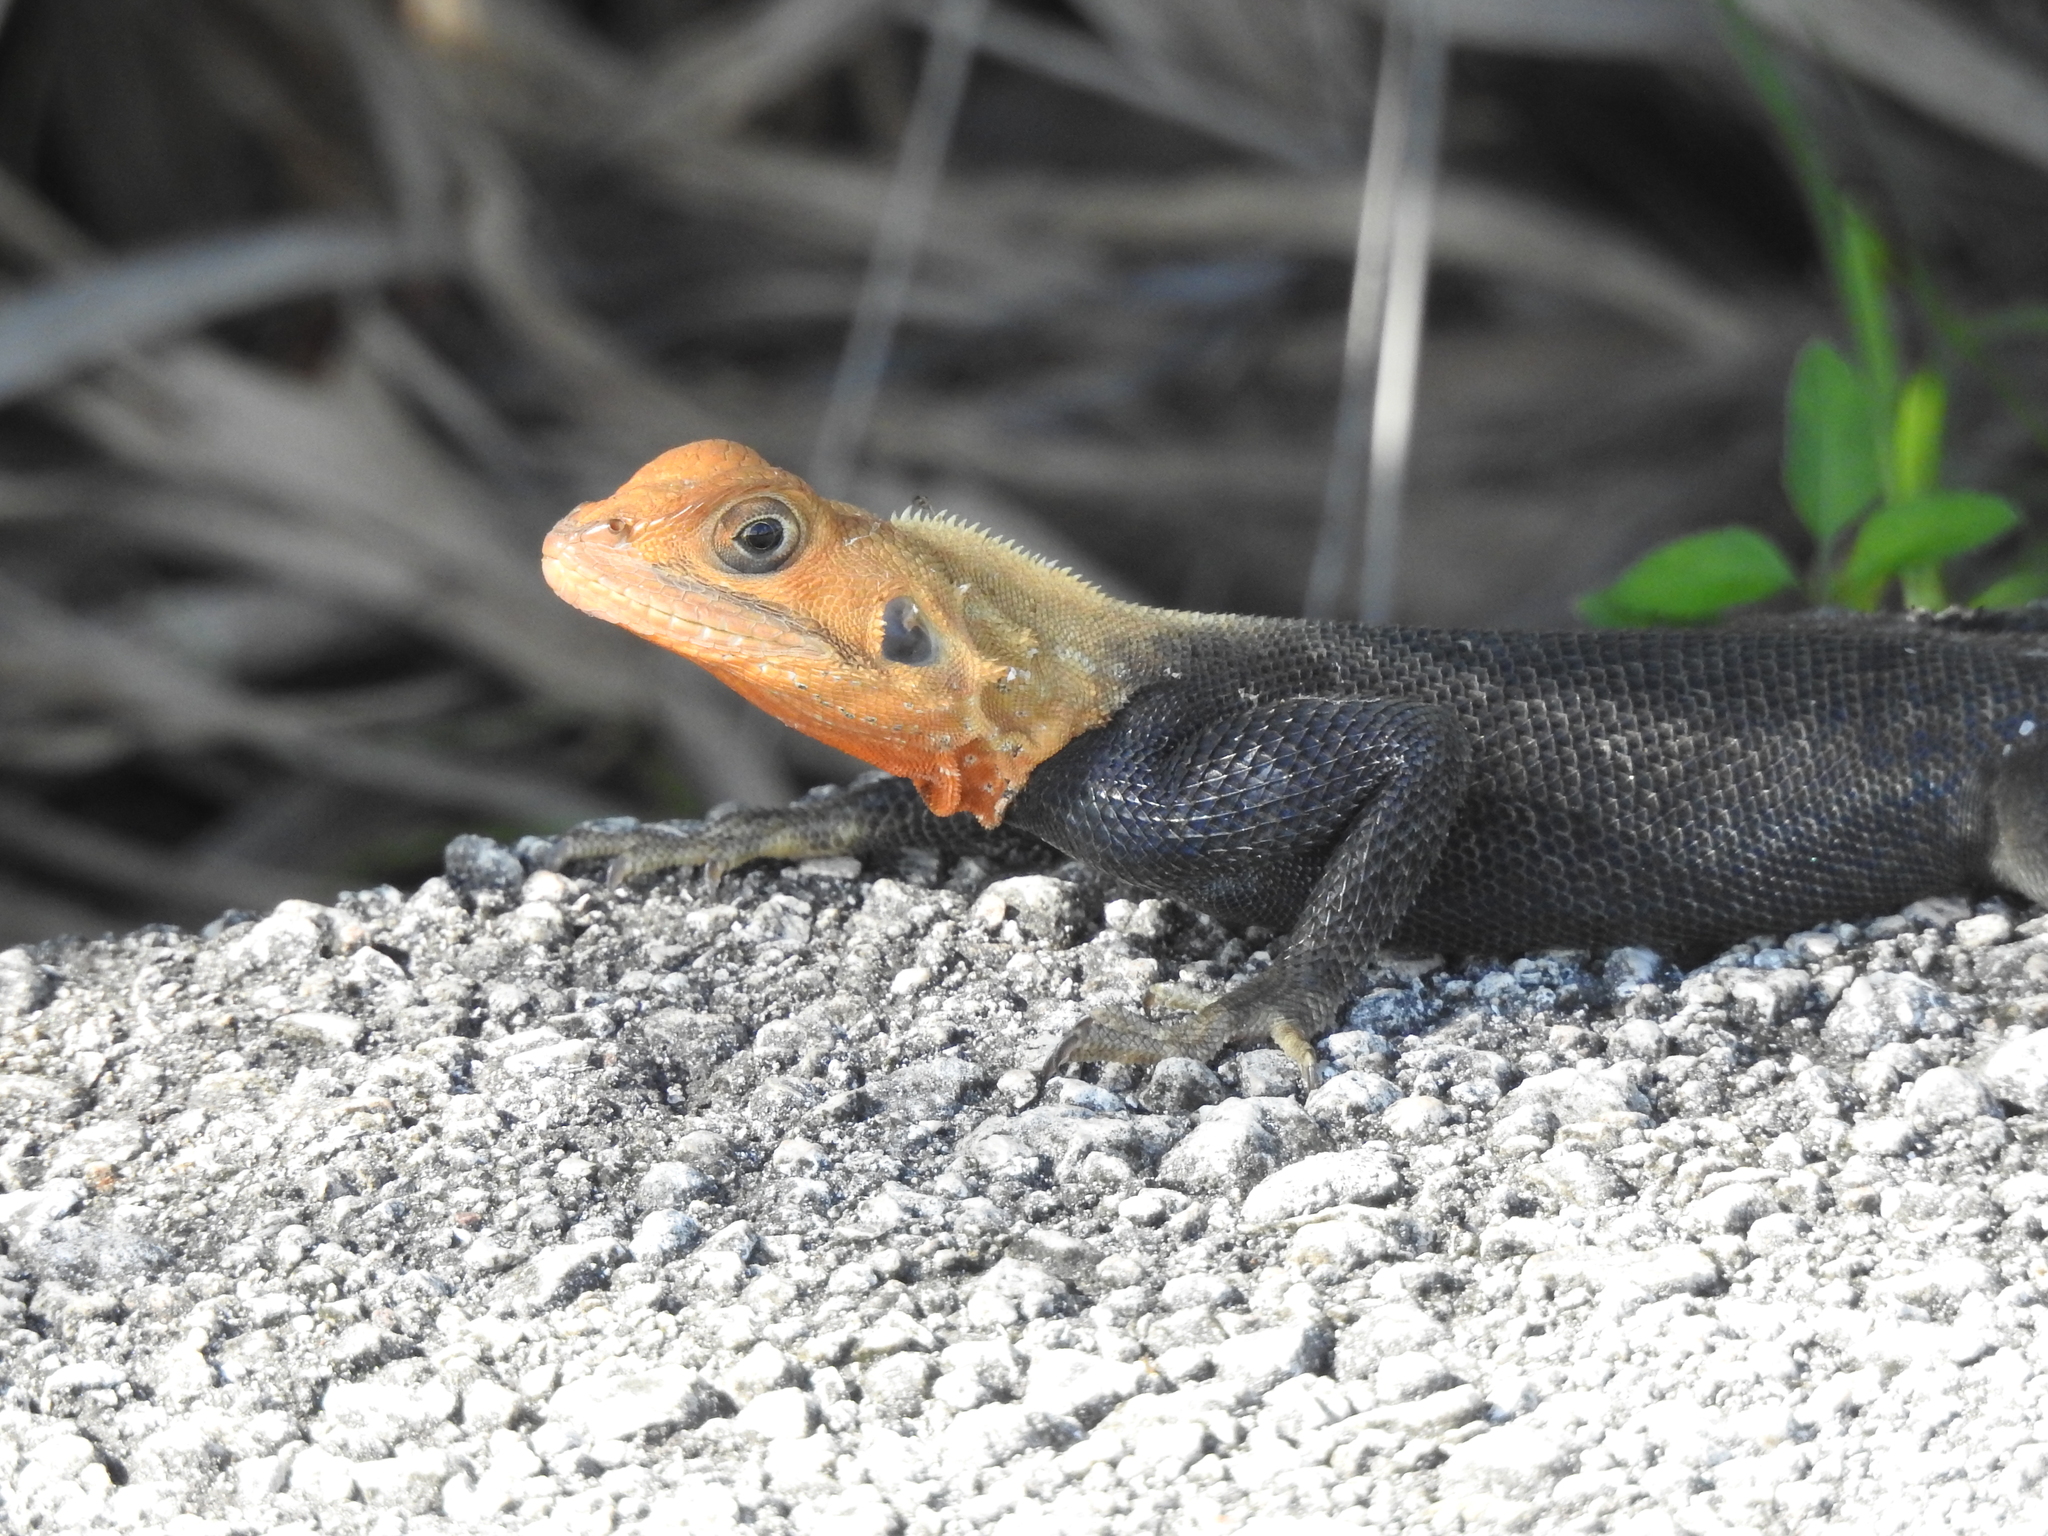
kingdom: Animalia
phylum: Chordata
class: Squamata
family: Agamidae
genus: Agama
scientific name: Agama picticauda
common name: Red-headed agama
